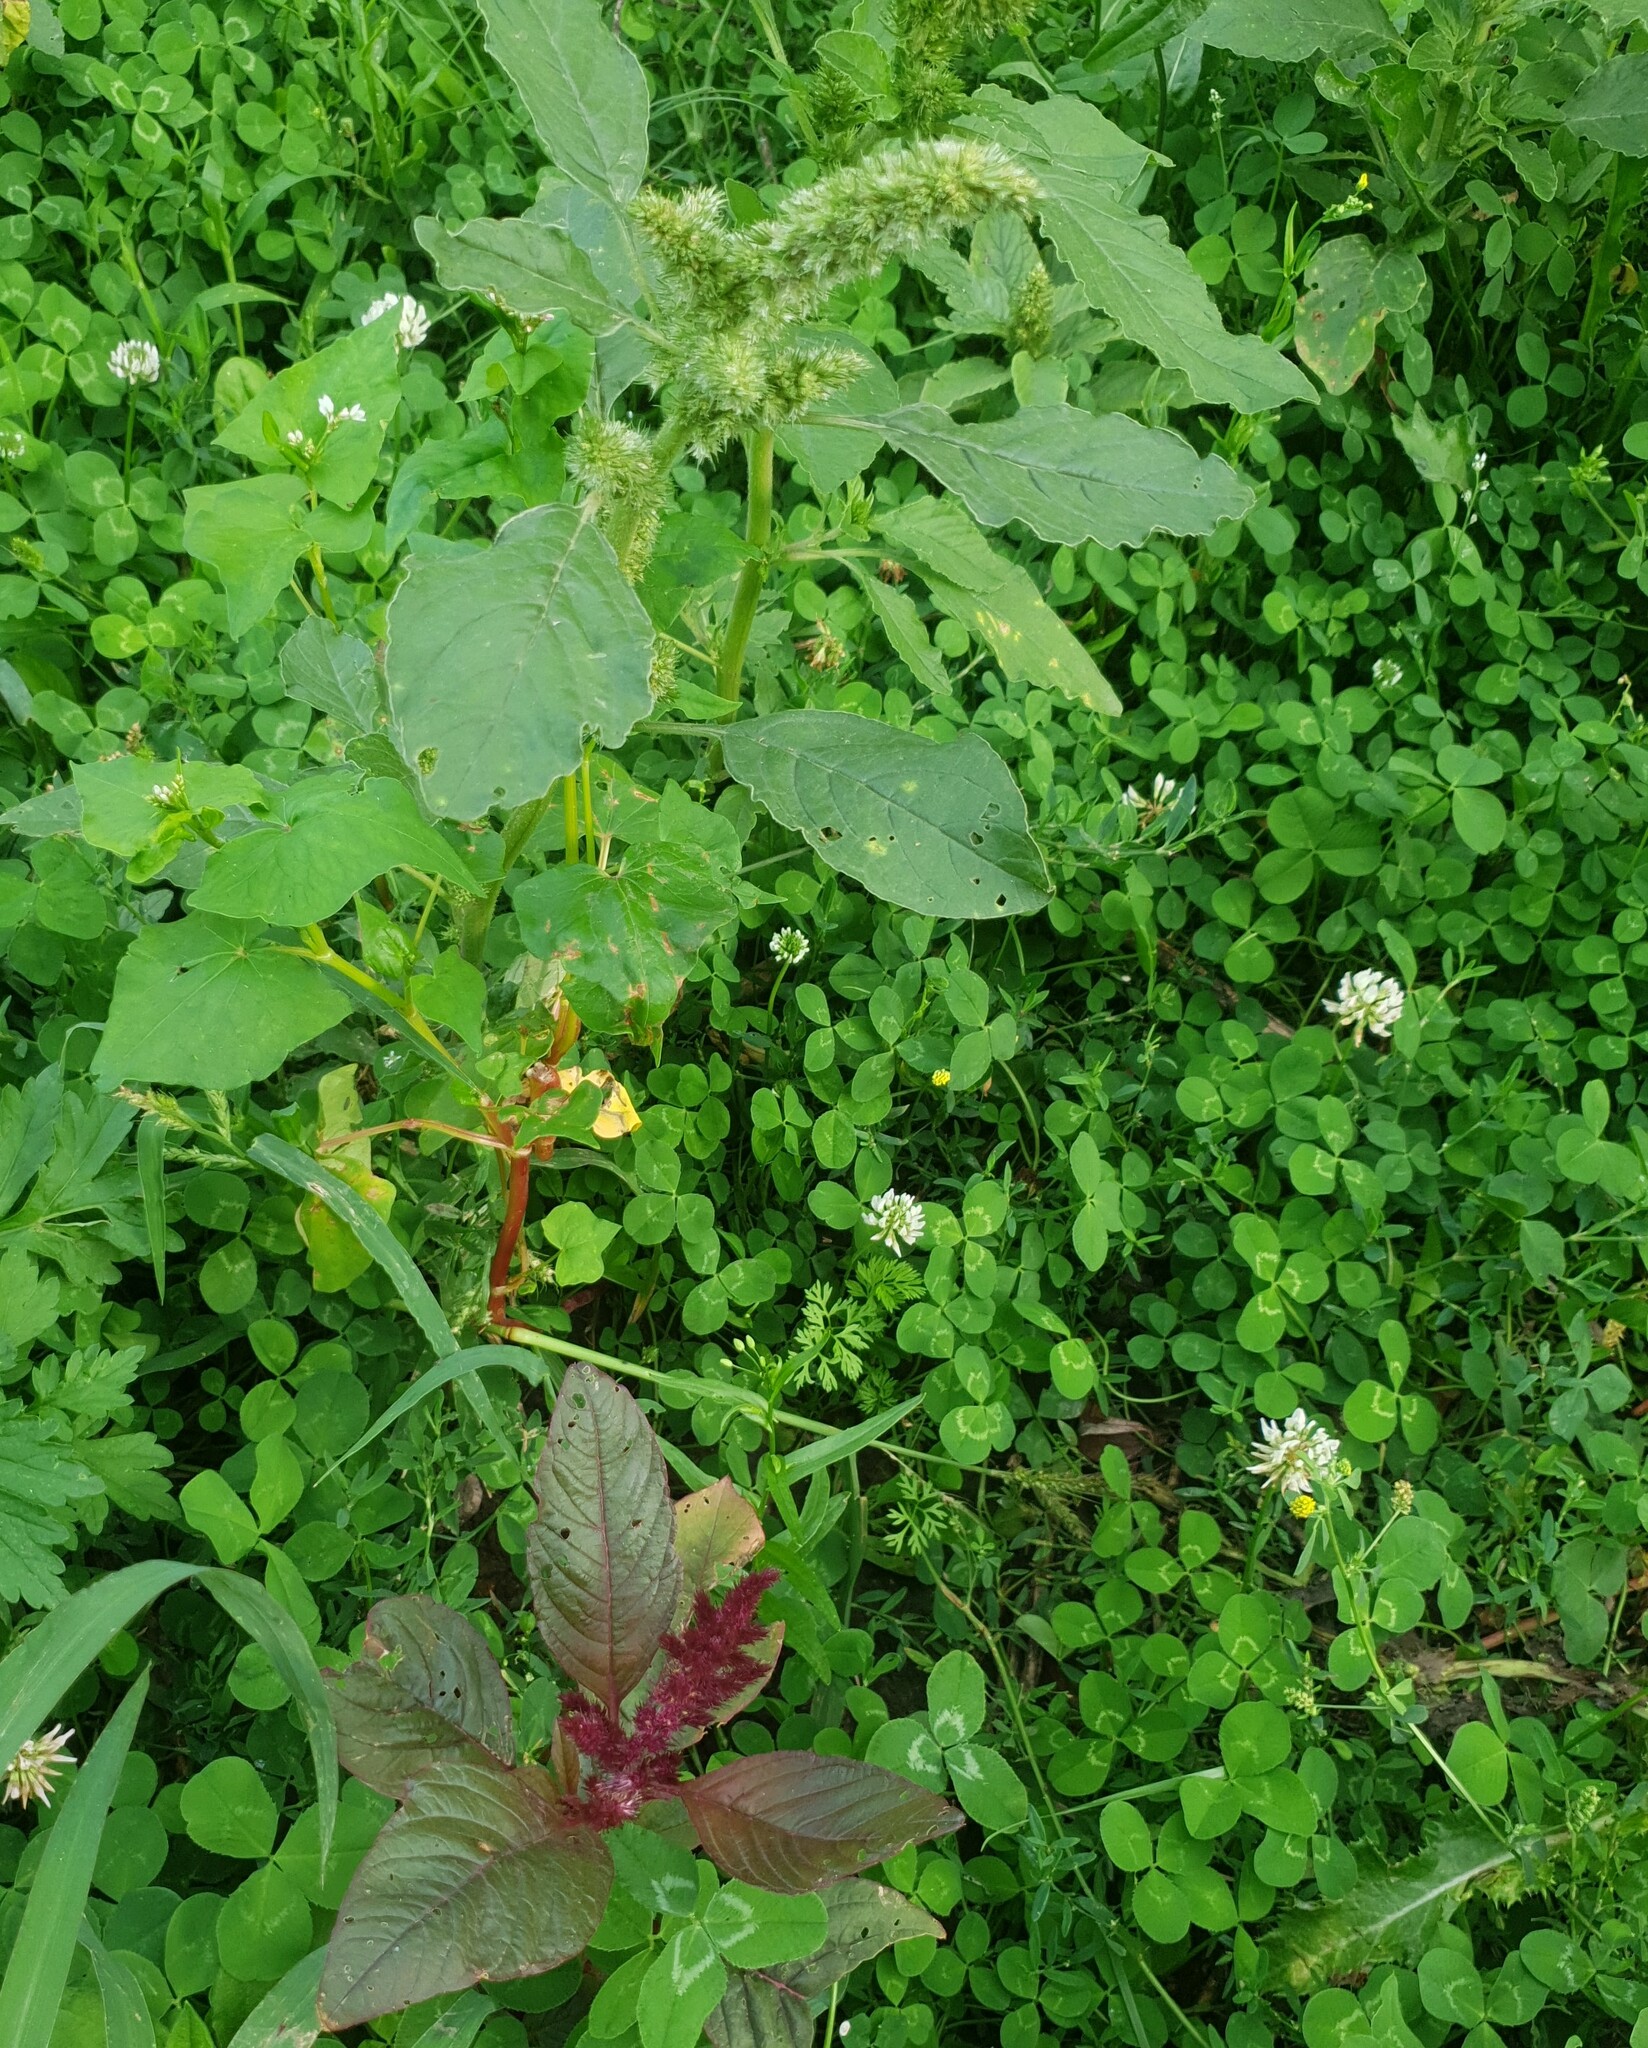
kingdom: Plantae
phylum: Tracheophyta
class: Magnoliopsida
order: Caryophyllales
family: Amaranthaceae
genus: Amaranthus
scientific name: Amaranthus hypochondriacus
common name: Prince's-feather
